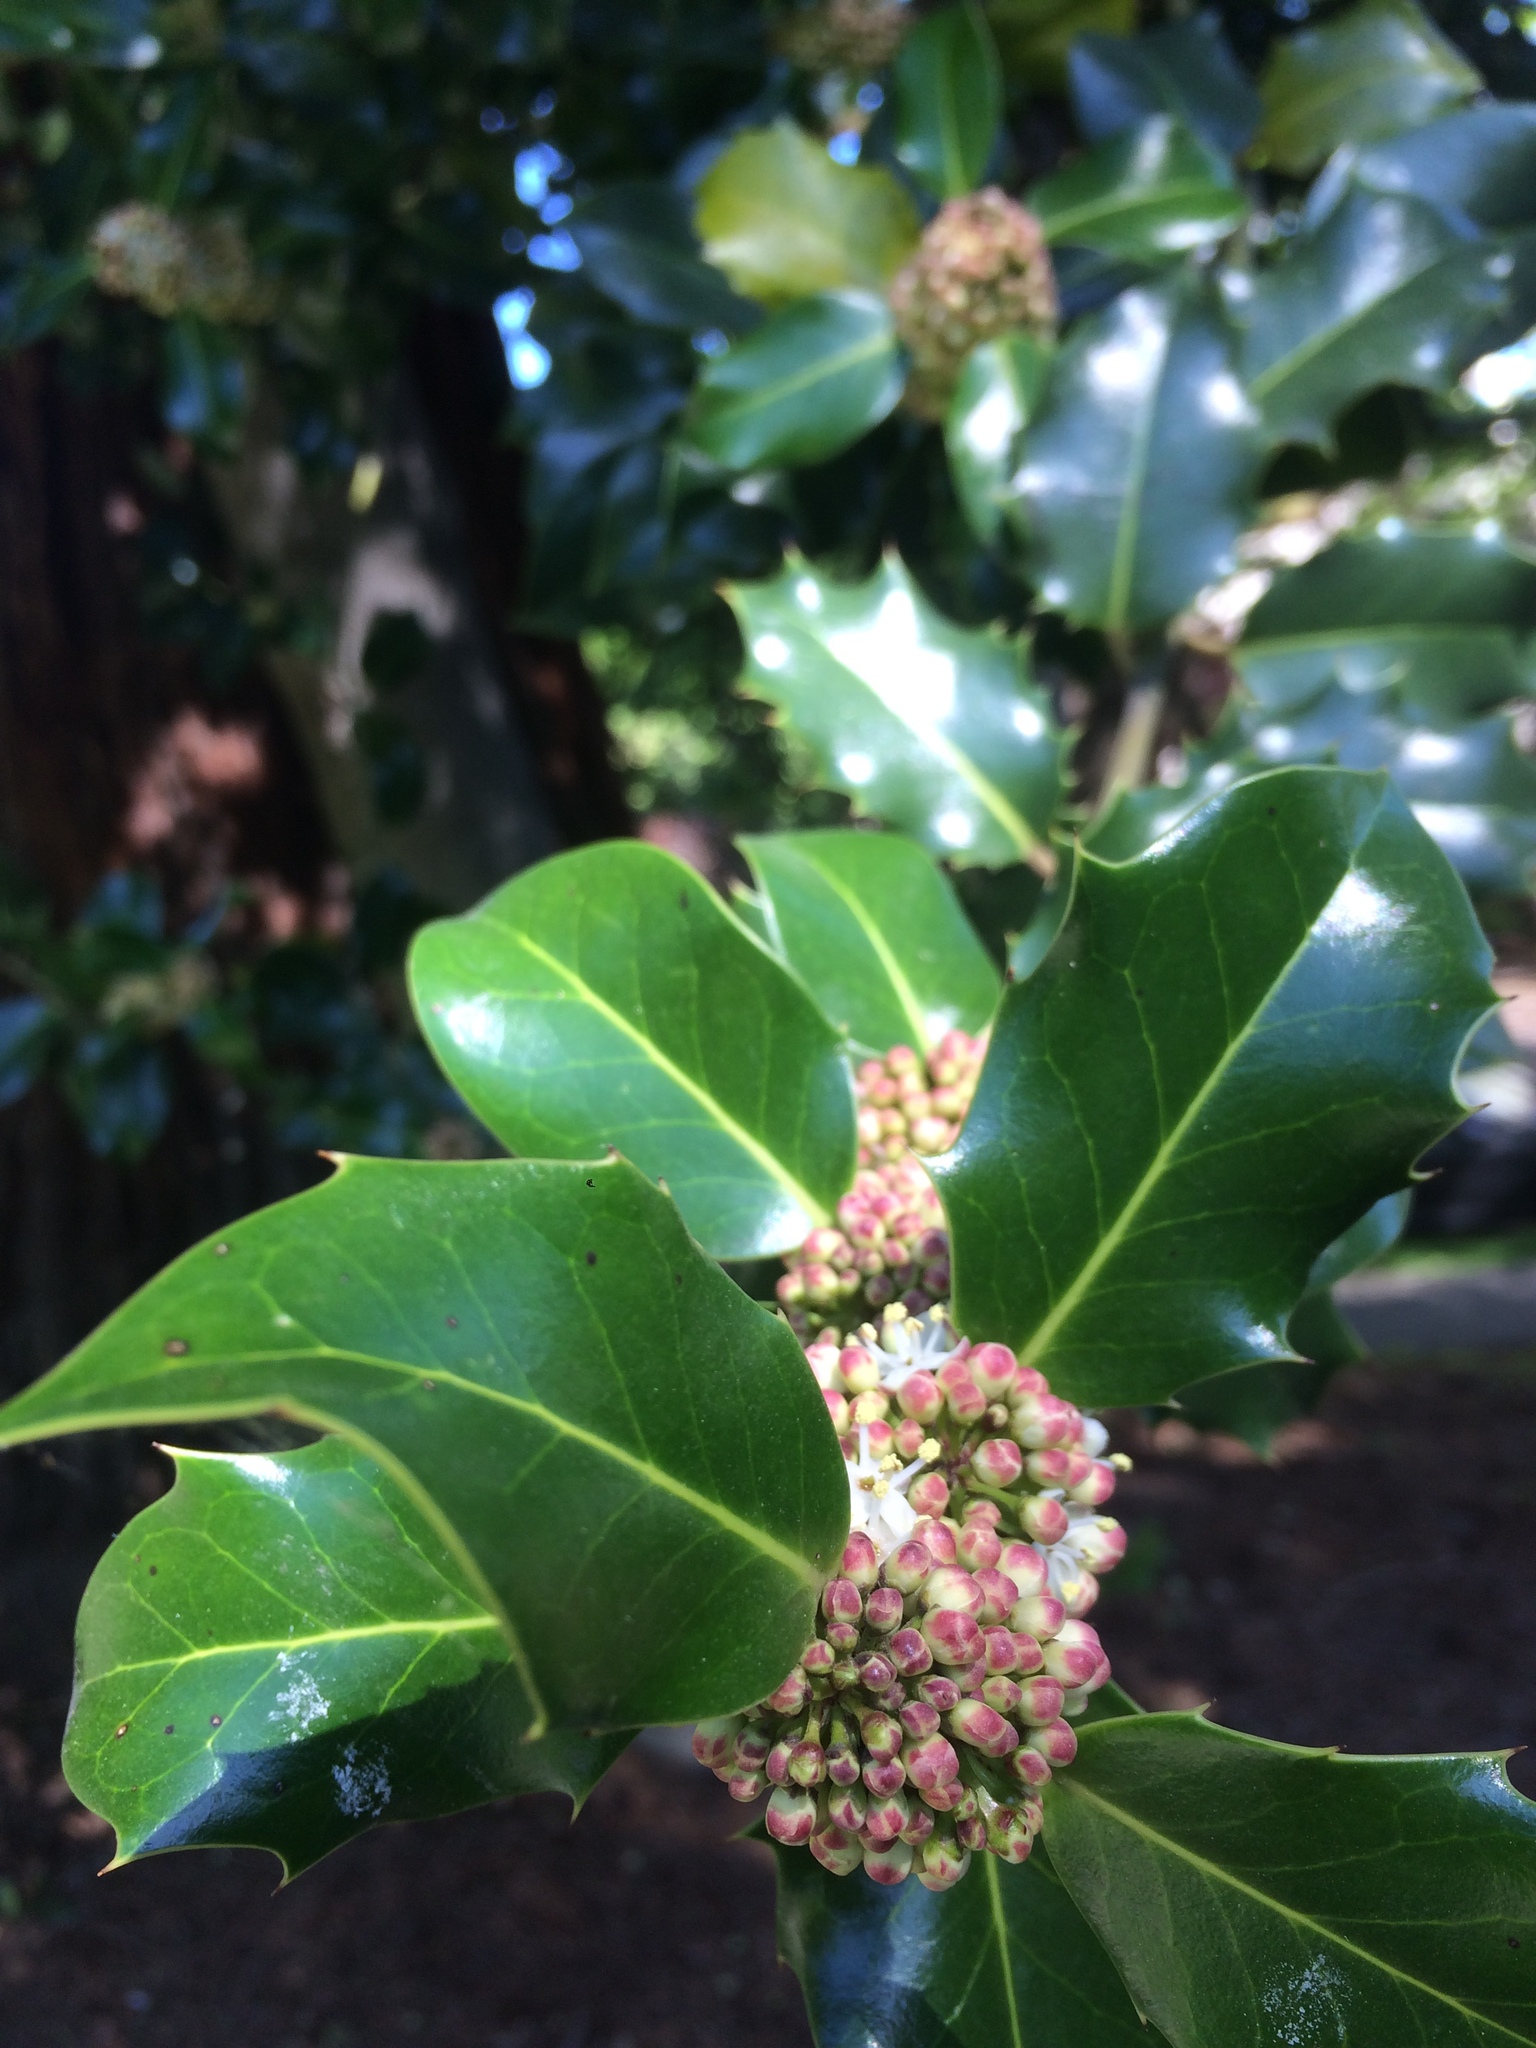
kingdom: Plantae
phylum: Tracheophyta
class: Magnoliopsida
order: Aquifoliales
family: Aquifoliaceae
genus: Ilex
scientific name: Ilex aquifolium
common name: English holly
